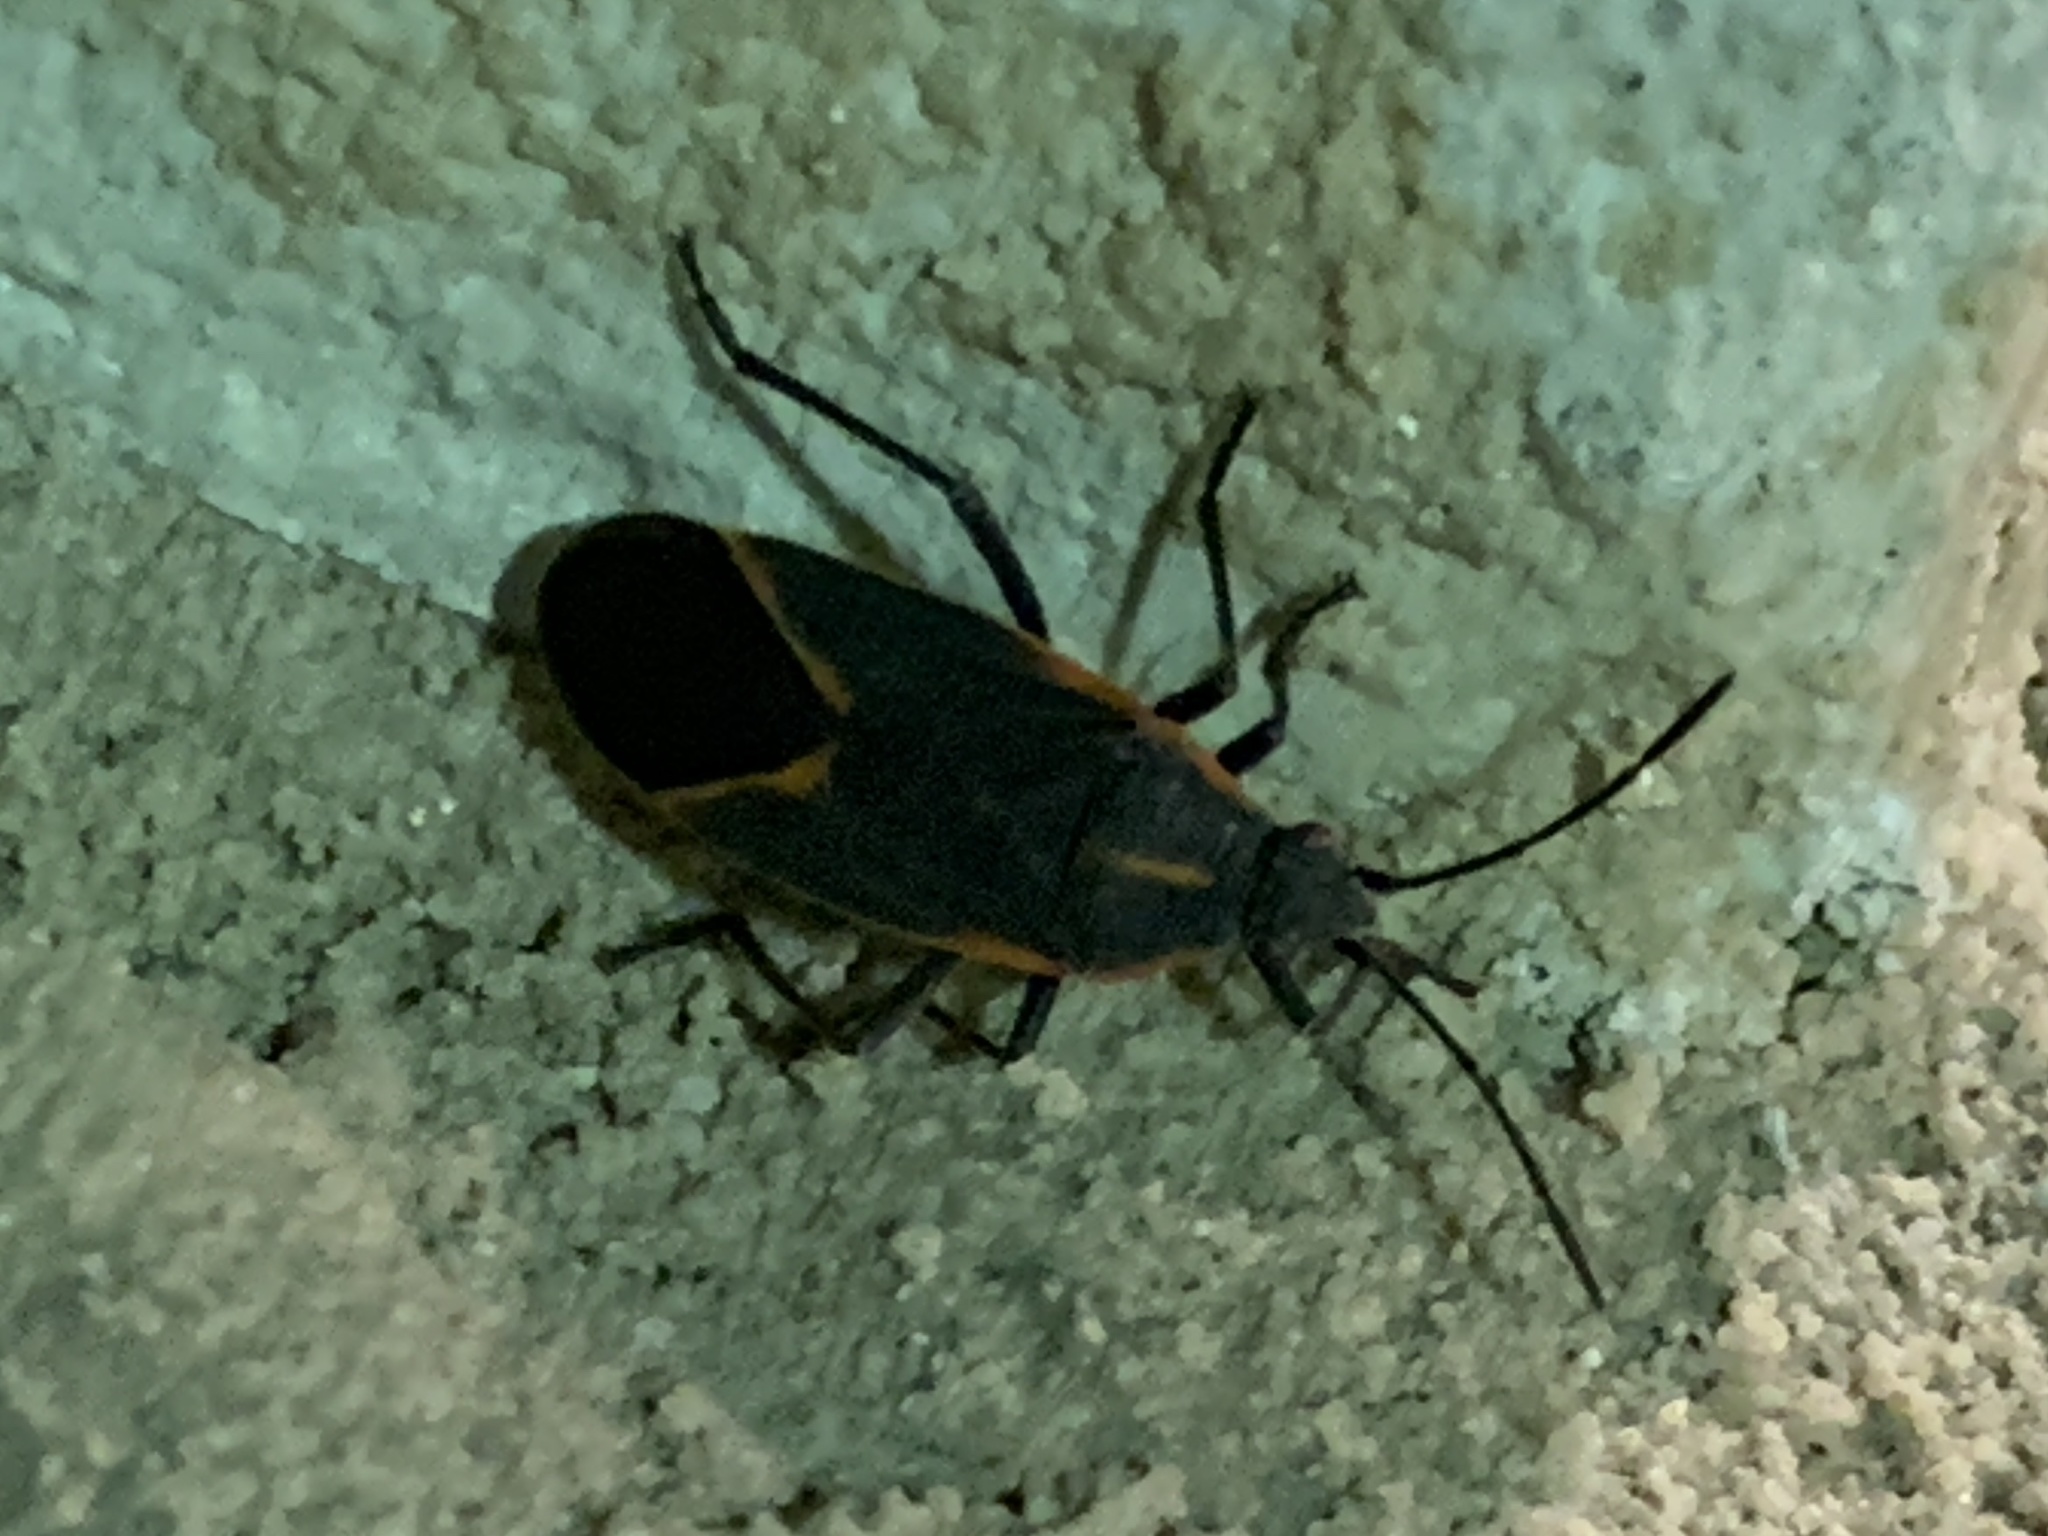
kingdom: Animalia
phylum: Arthropoda
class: Insecta
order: Hemiptera
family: Rhopalidae
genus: Boisea
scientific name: Boisea trivittata
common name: Boxelder bug
